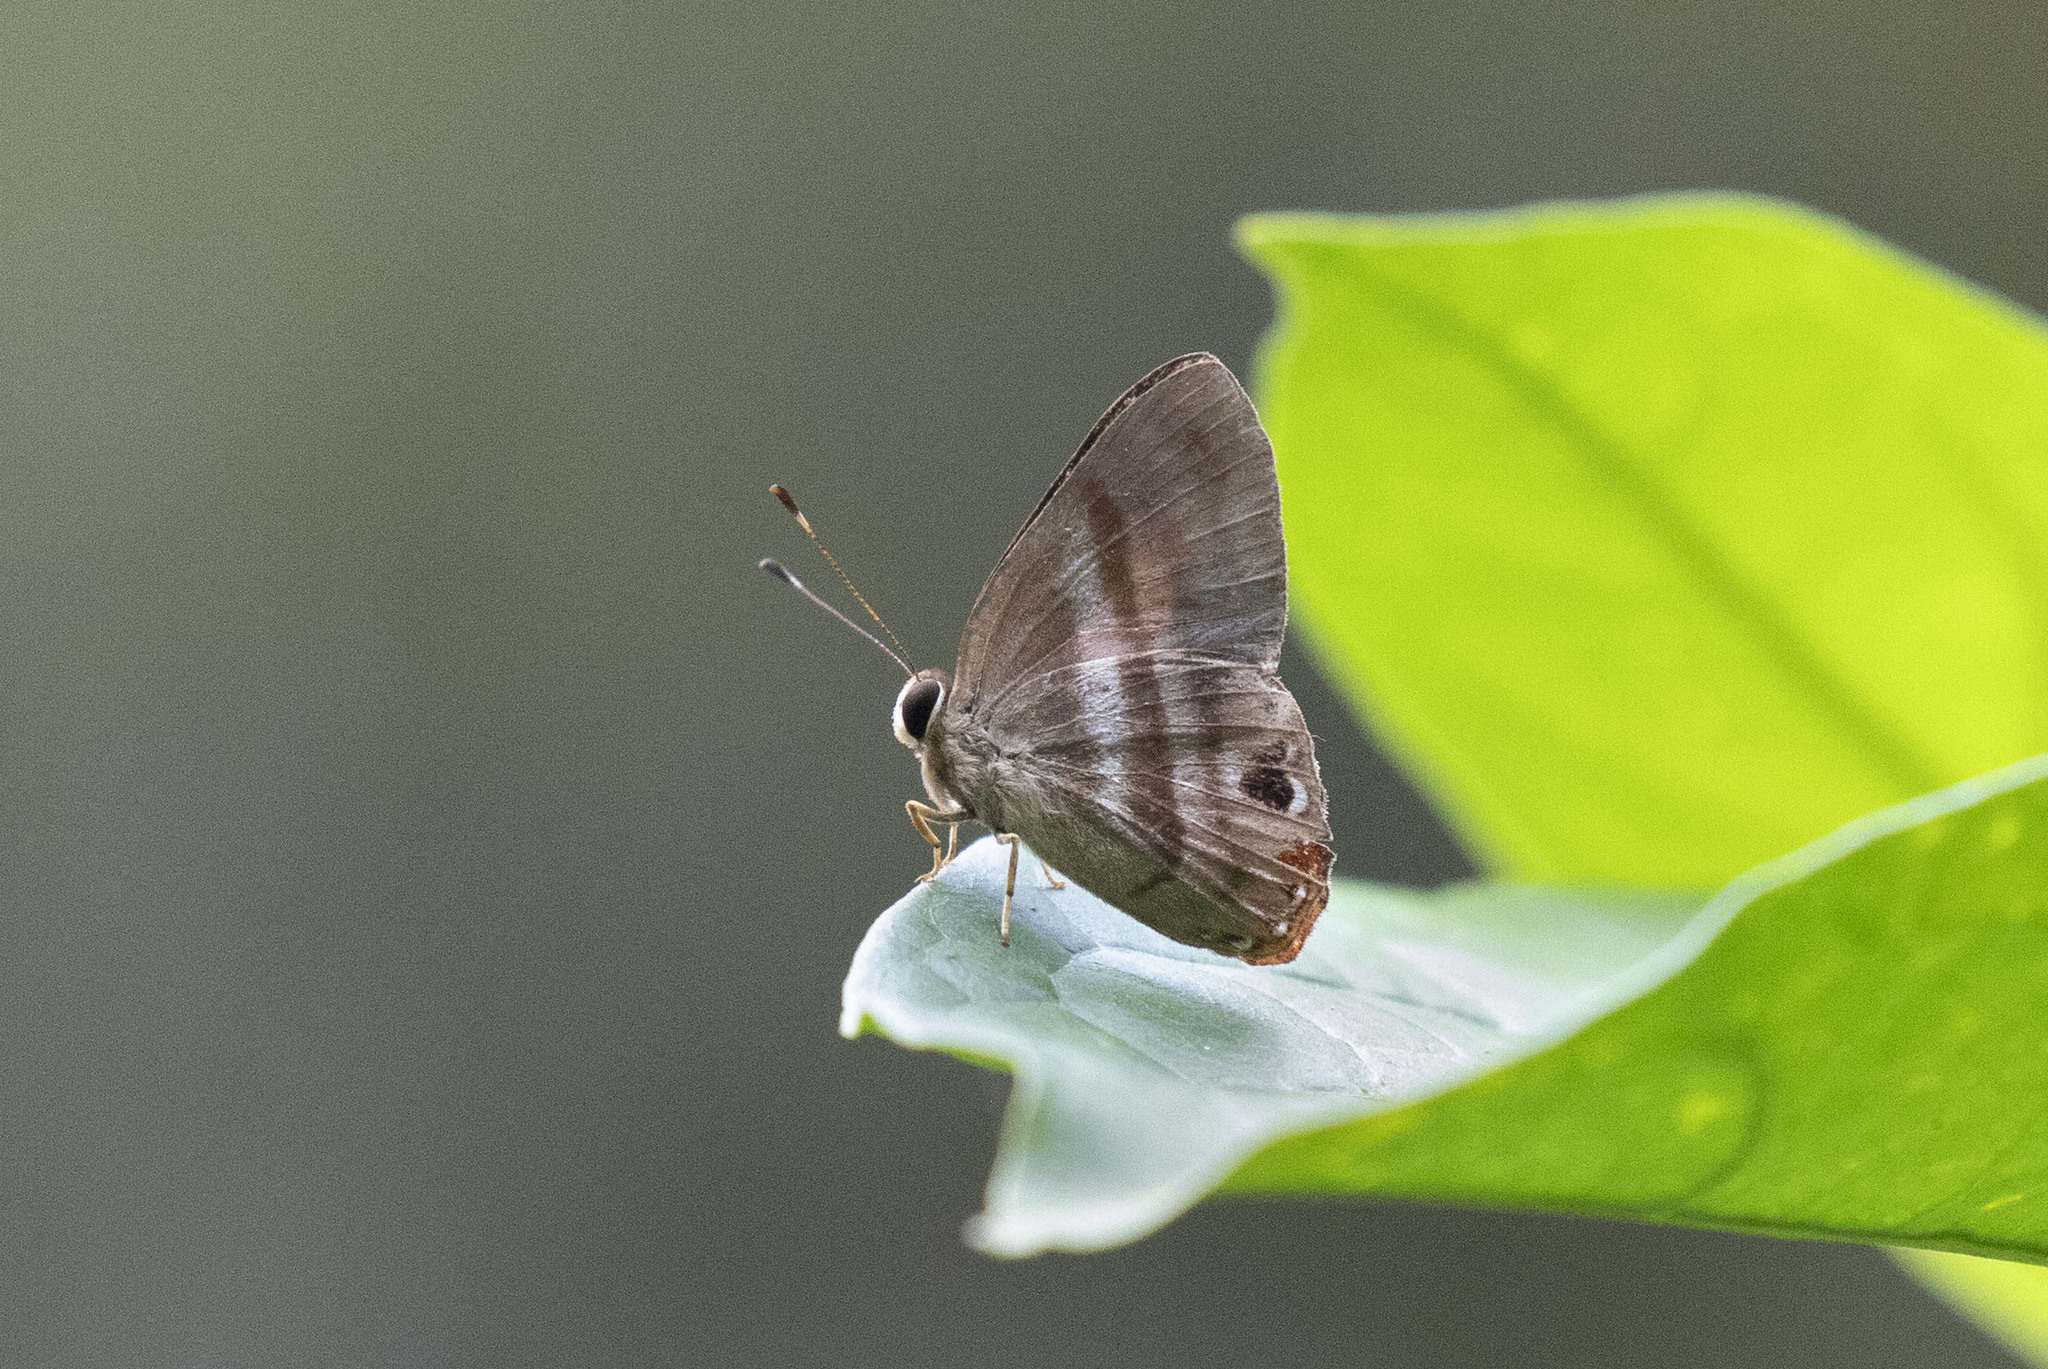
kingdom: Animalia
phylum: Arthropoda
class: Insecta
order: Lepidoptera
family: Riodinidae
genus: Pelolasia
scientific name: Pelolasia
